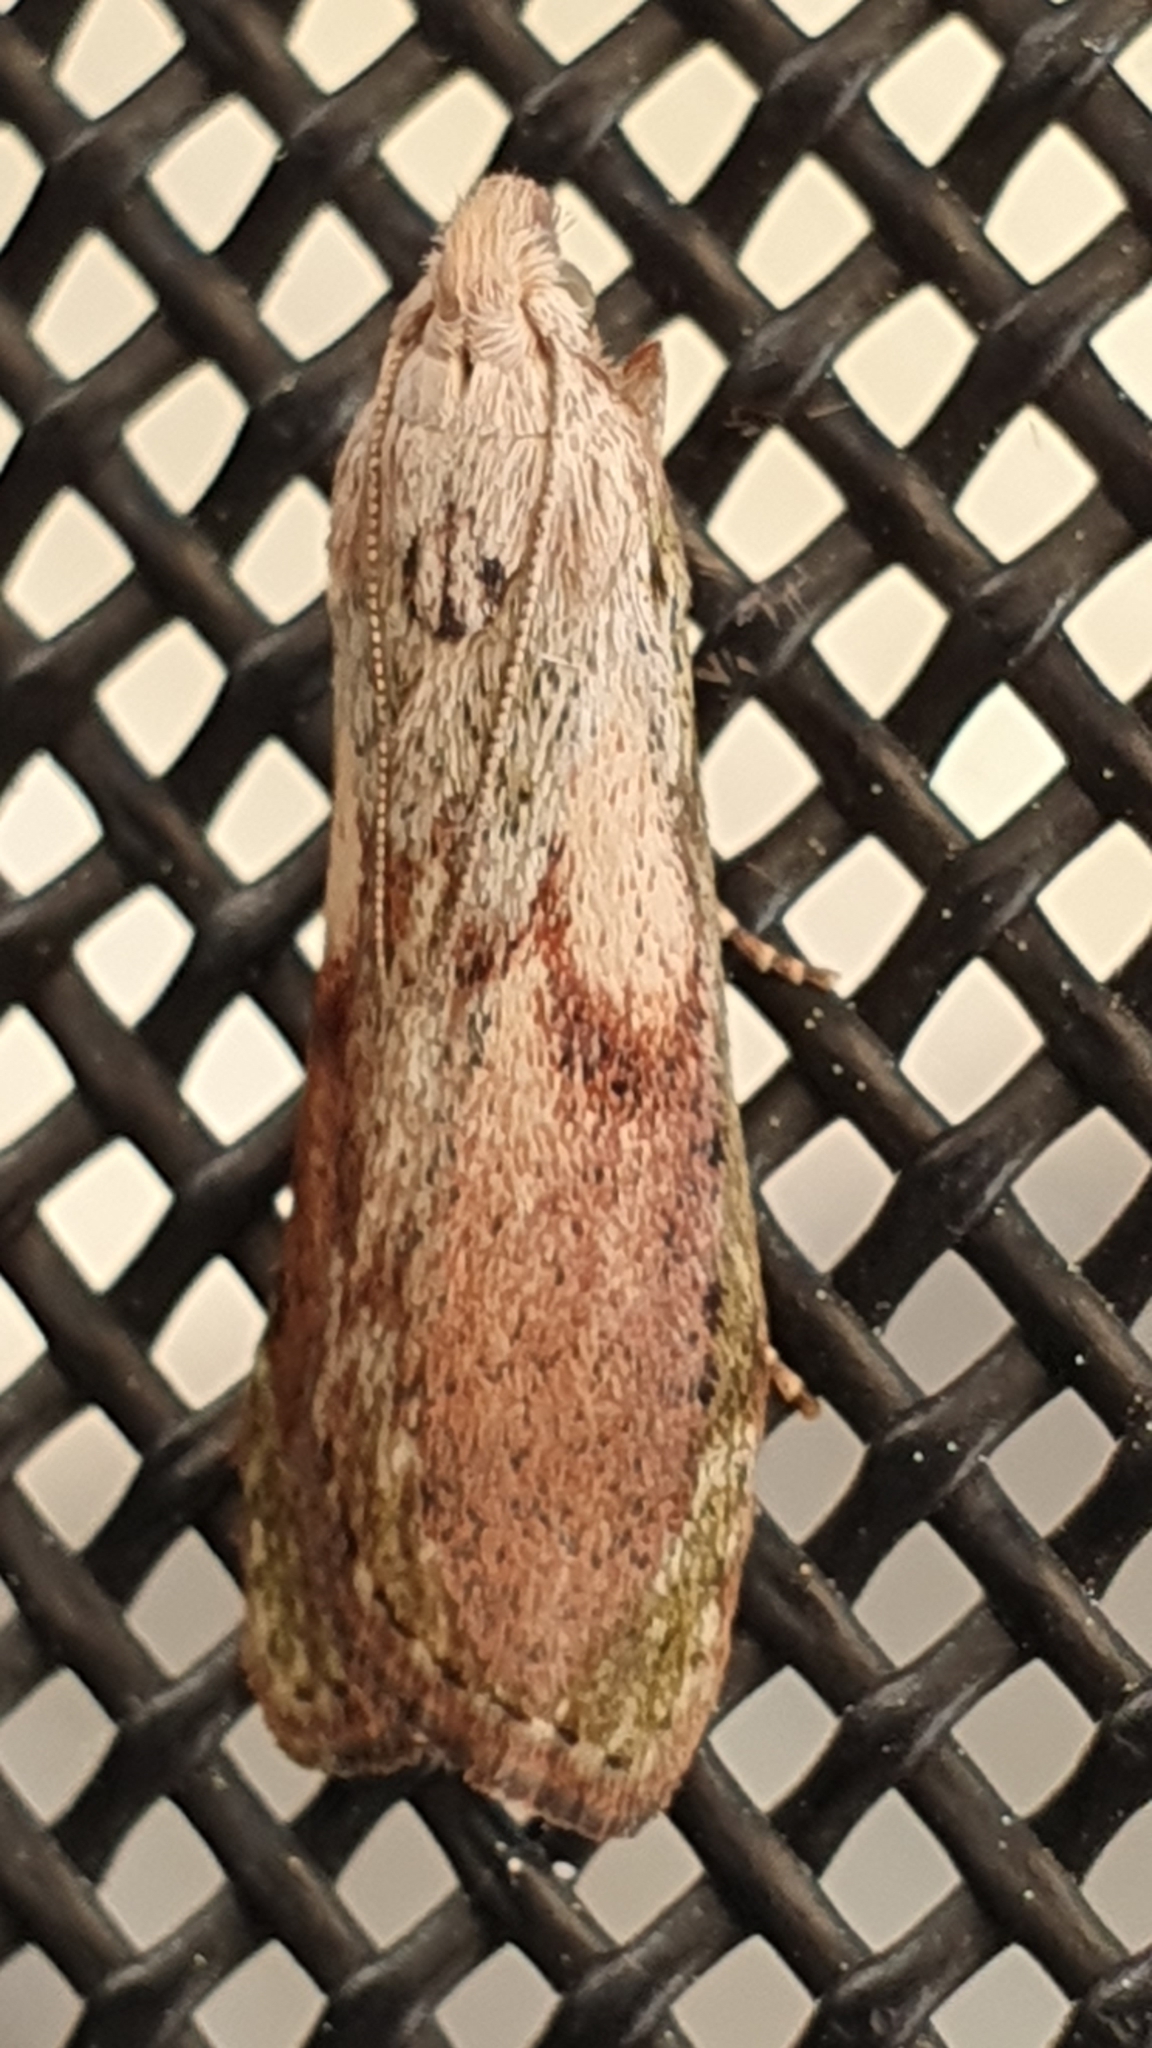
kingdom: Animalia
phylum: Arthropoda
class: Insecta
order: Lepidoptera
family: Pyralidae
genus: Aphomia
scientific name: Aphomia sociella
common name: Bee moth
